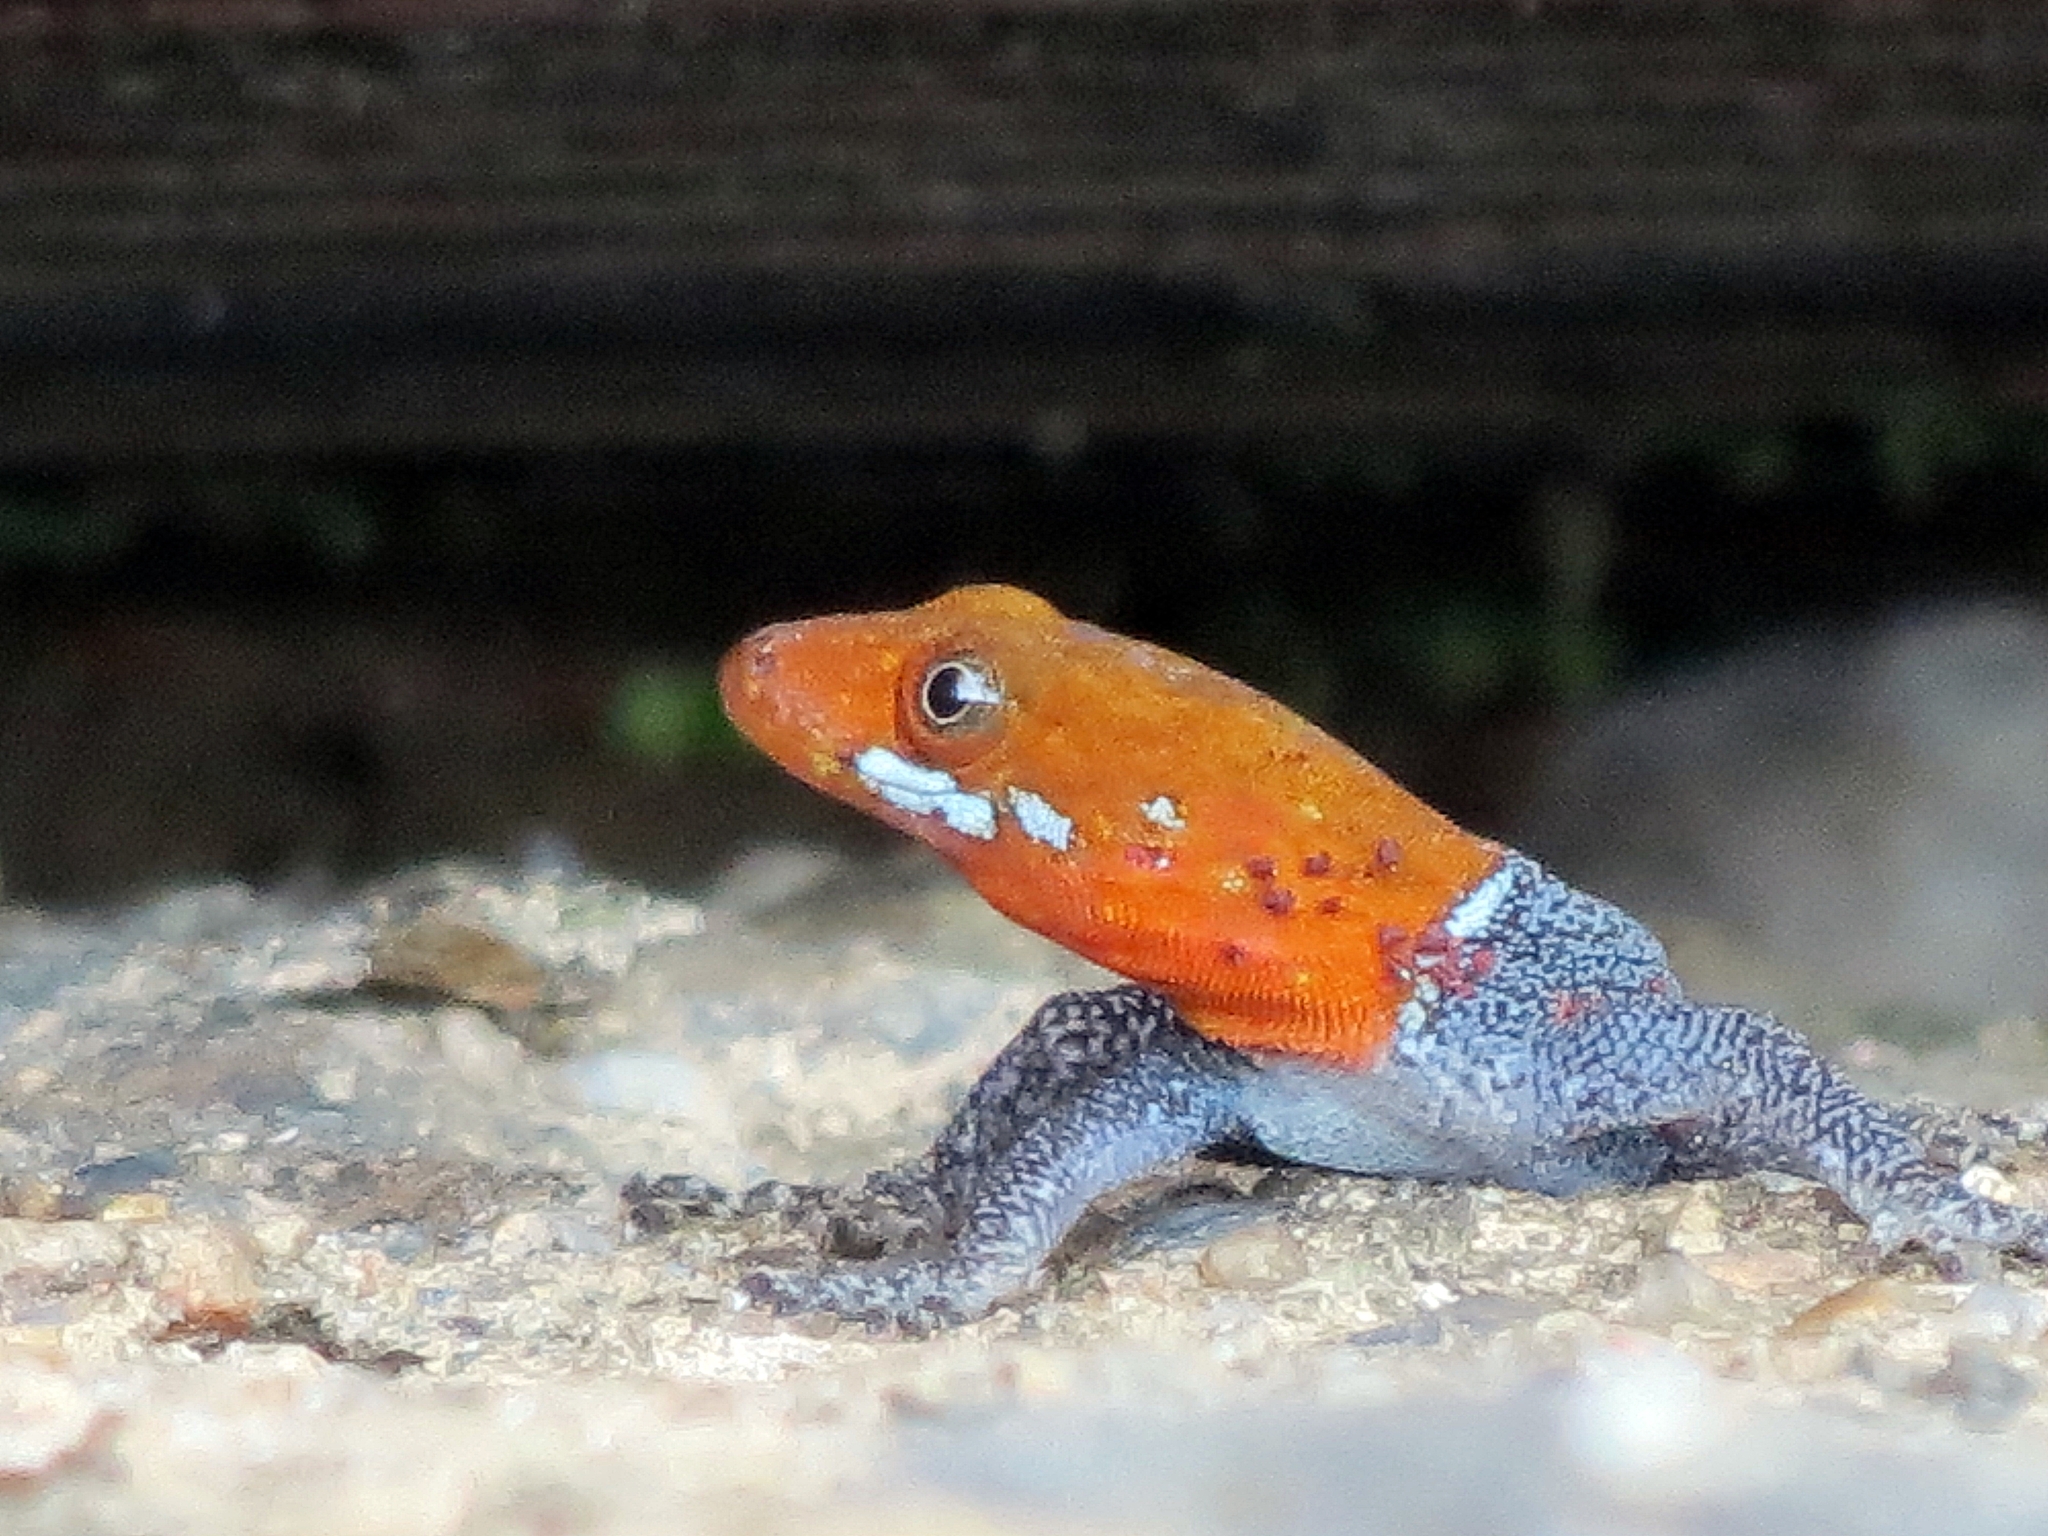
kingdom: Animalia
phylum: Chordata
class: Squamata
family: Sphaerodactylidae
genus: Gonatodes
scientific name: Gonatodes albogularis
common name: Yellow-headed gecko
